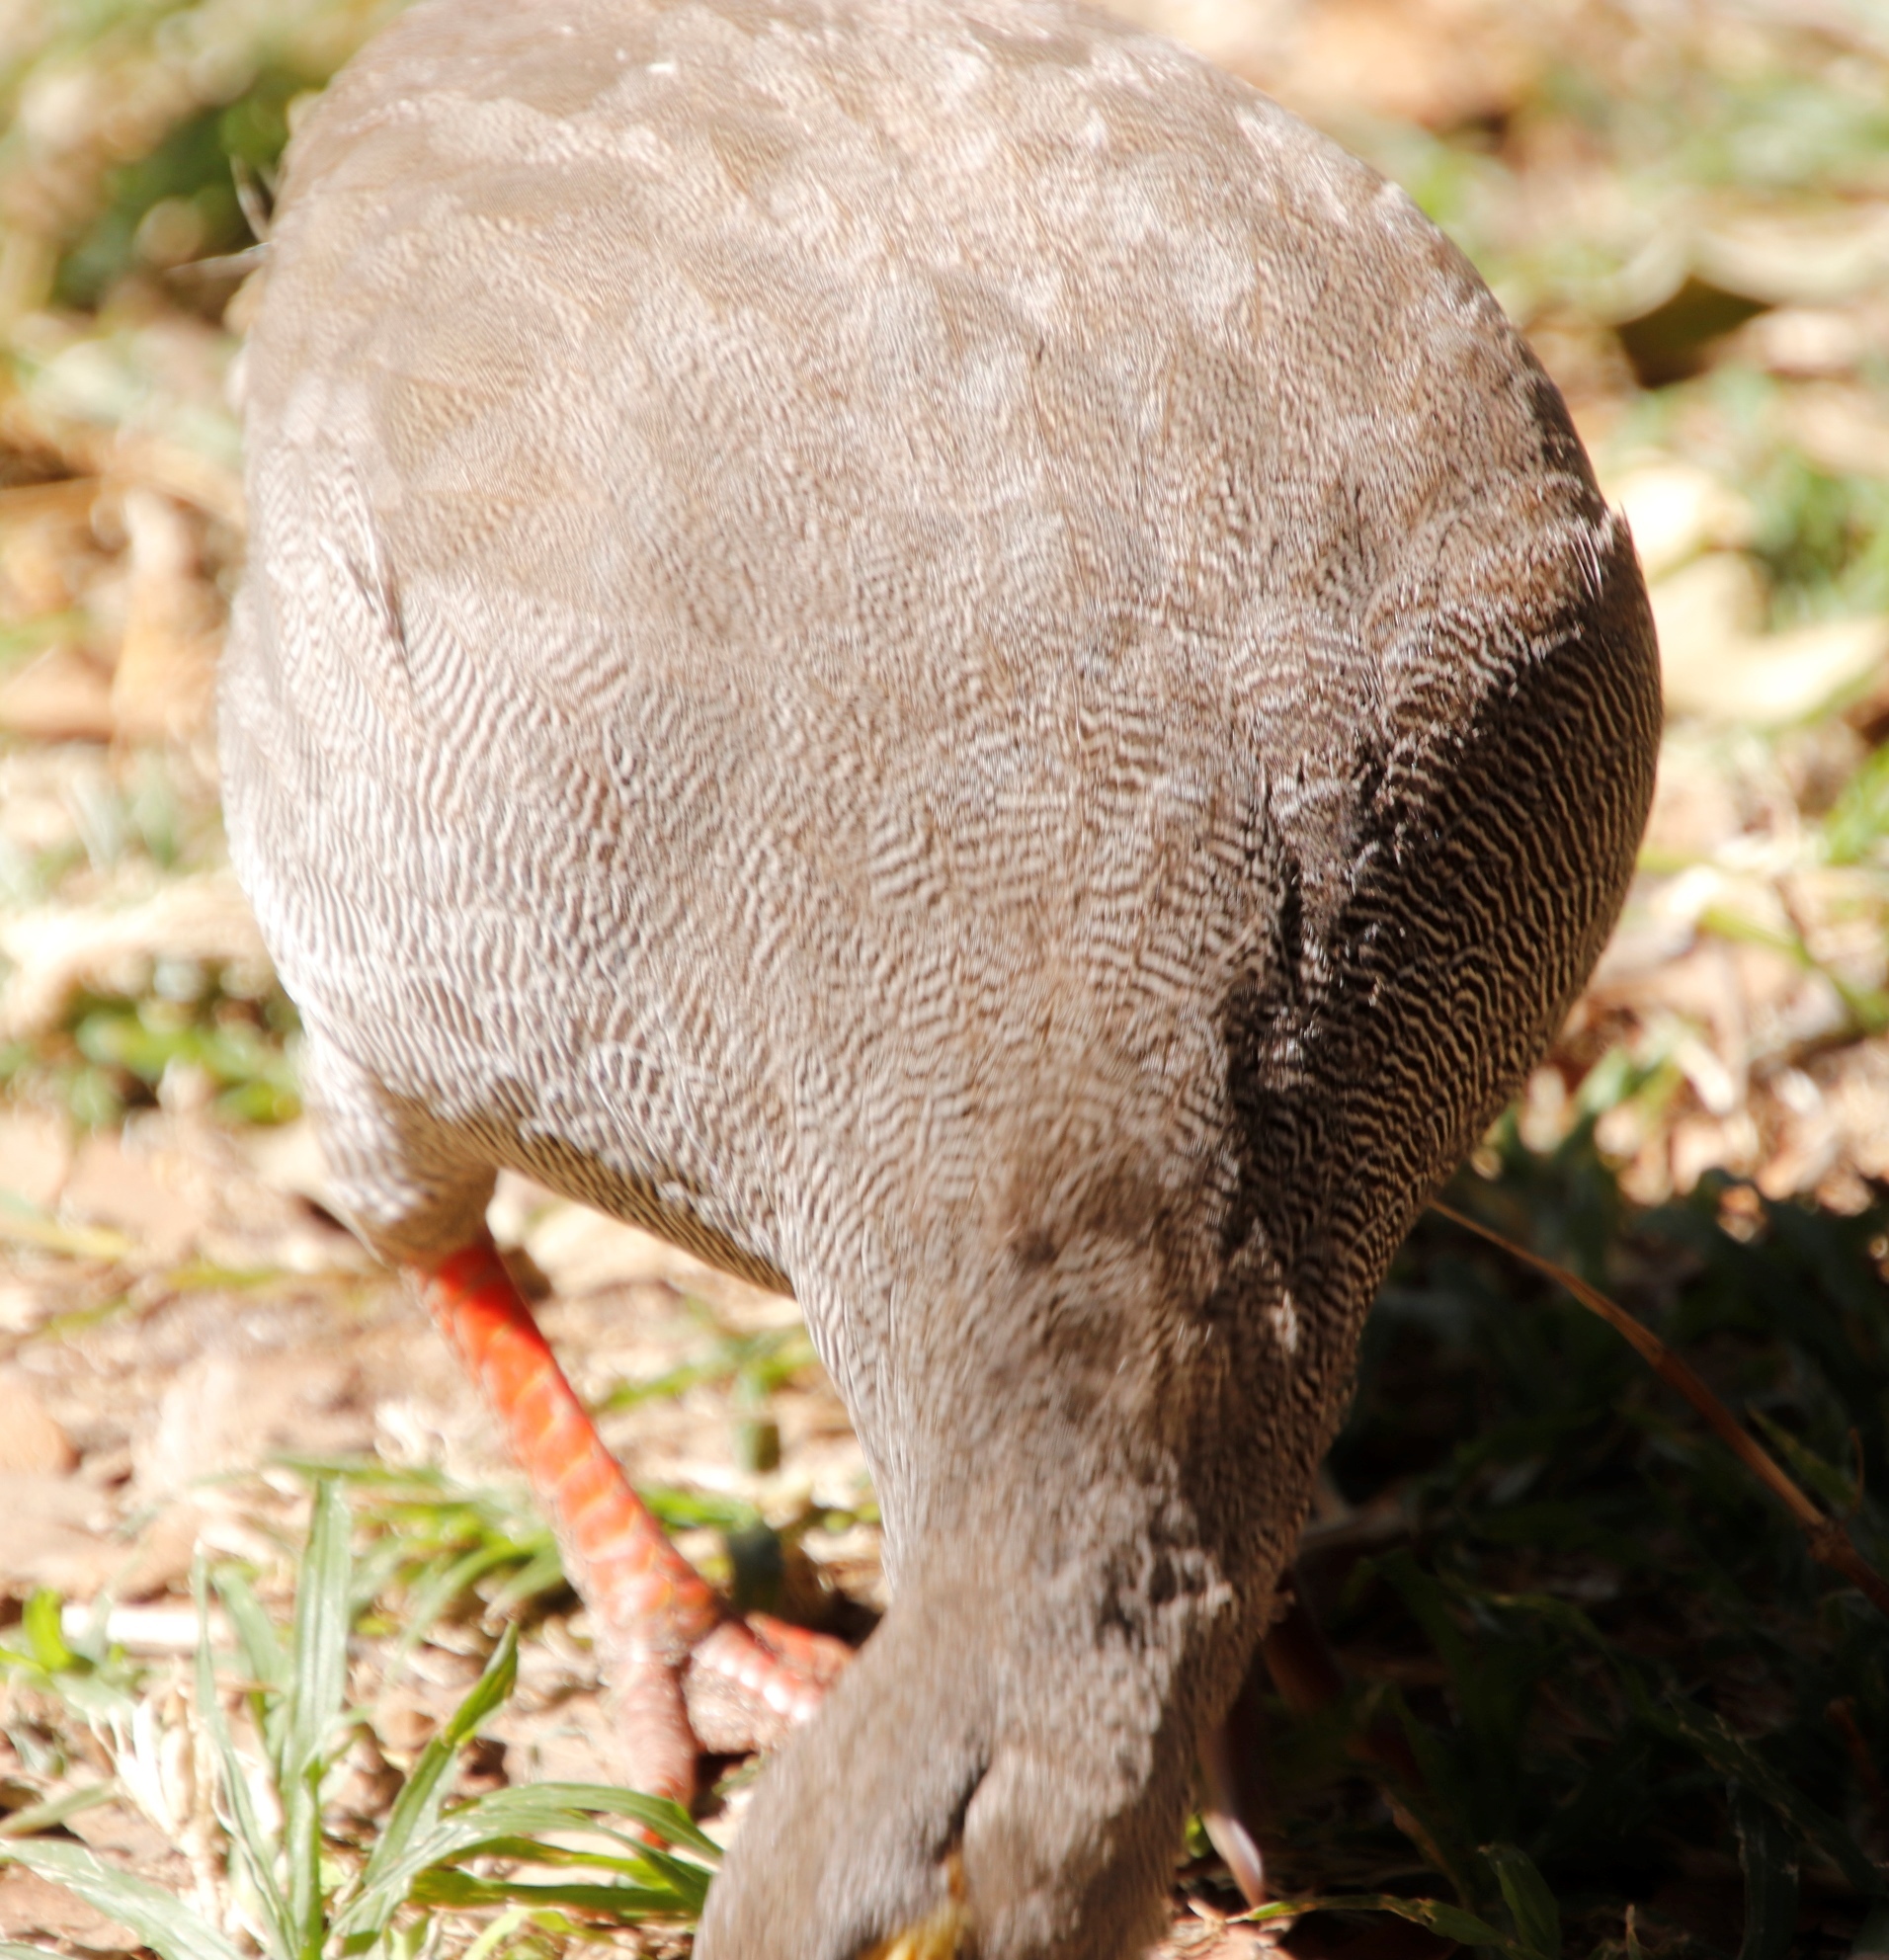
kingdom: Animalia
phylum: Chordata
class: Aves
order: Galliformes
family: Phasianidae
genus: Pternistis
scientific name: Pternistis adspersus
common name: Red-billed spurfowl
